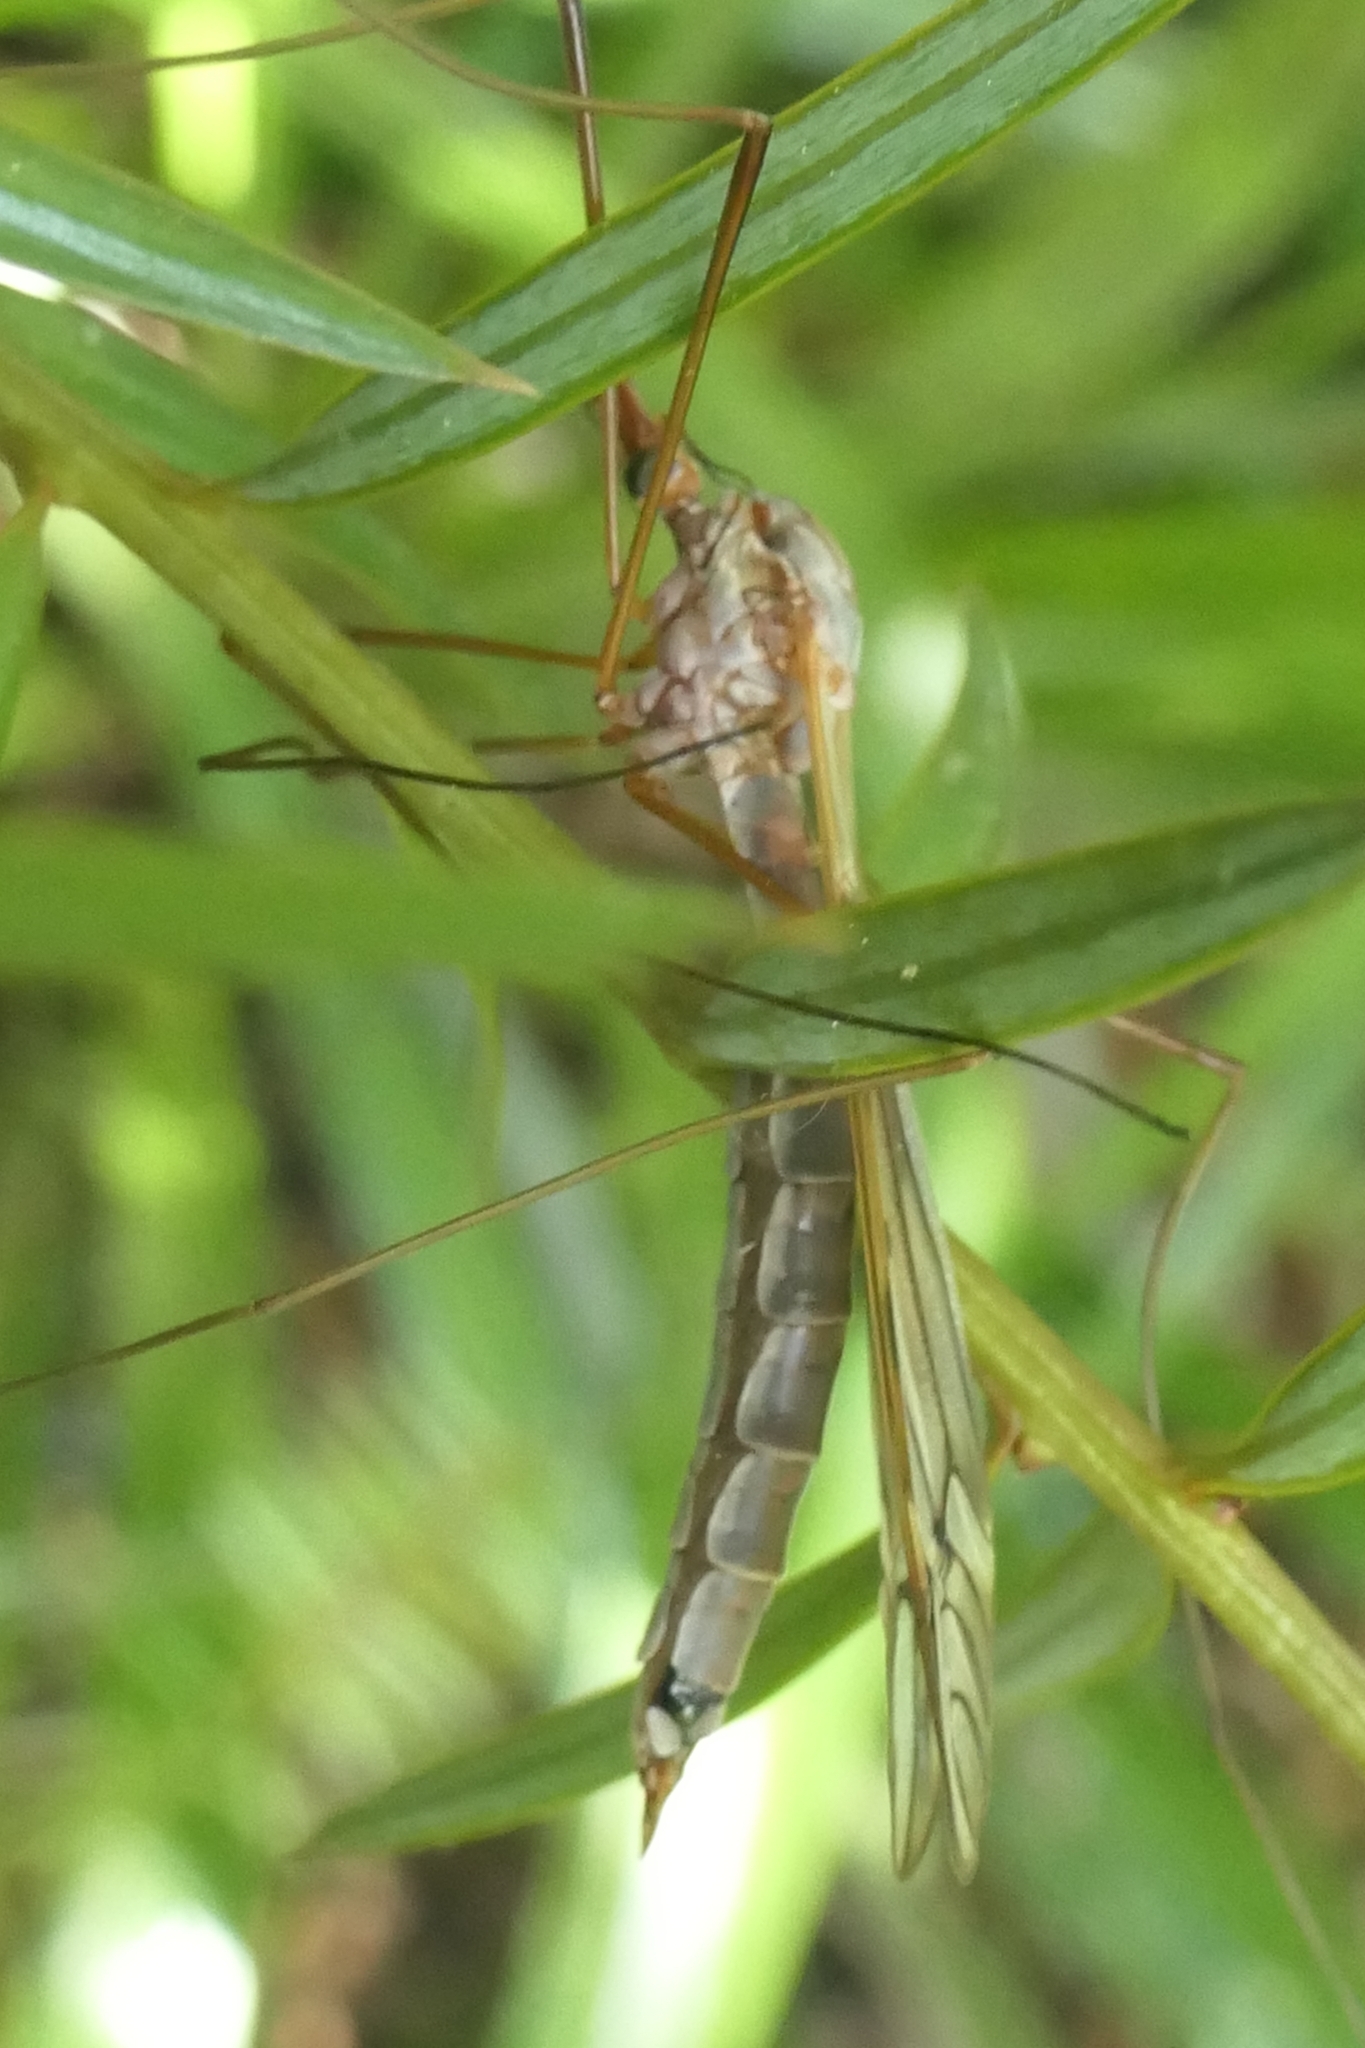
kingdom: Animalia
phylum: Arthropoda
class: Insecta
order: Diptera
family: Tipulidae
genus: Zelandotipula
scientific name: Zelandotipula novarae
